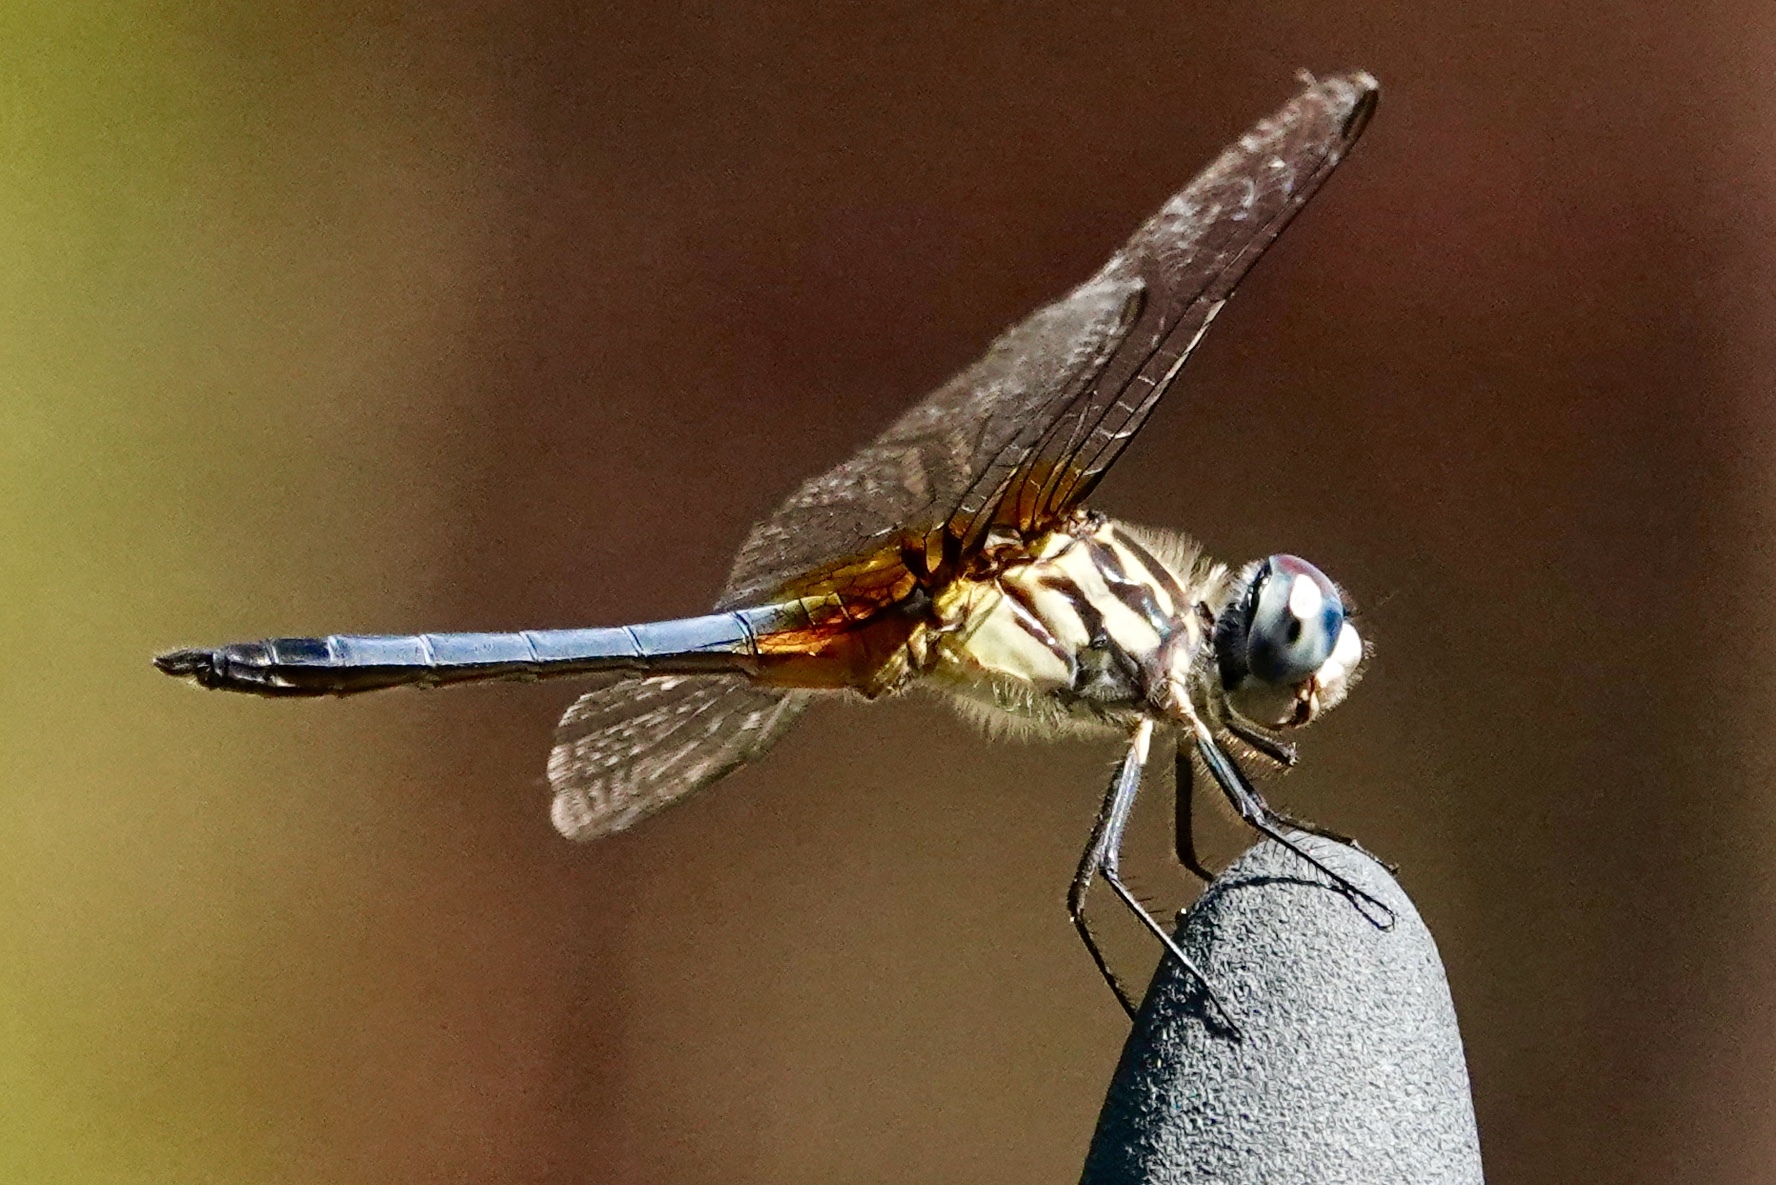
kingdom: Animalia
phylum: Arthropoda
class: Insecta
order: Odonata
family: Libellulidae
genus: Pachydiplax
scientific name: Pachydiplax longipennis
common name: Blue dasher
